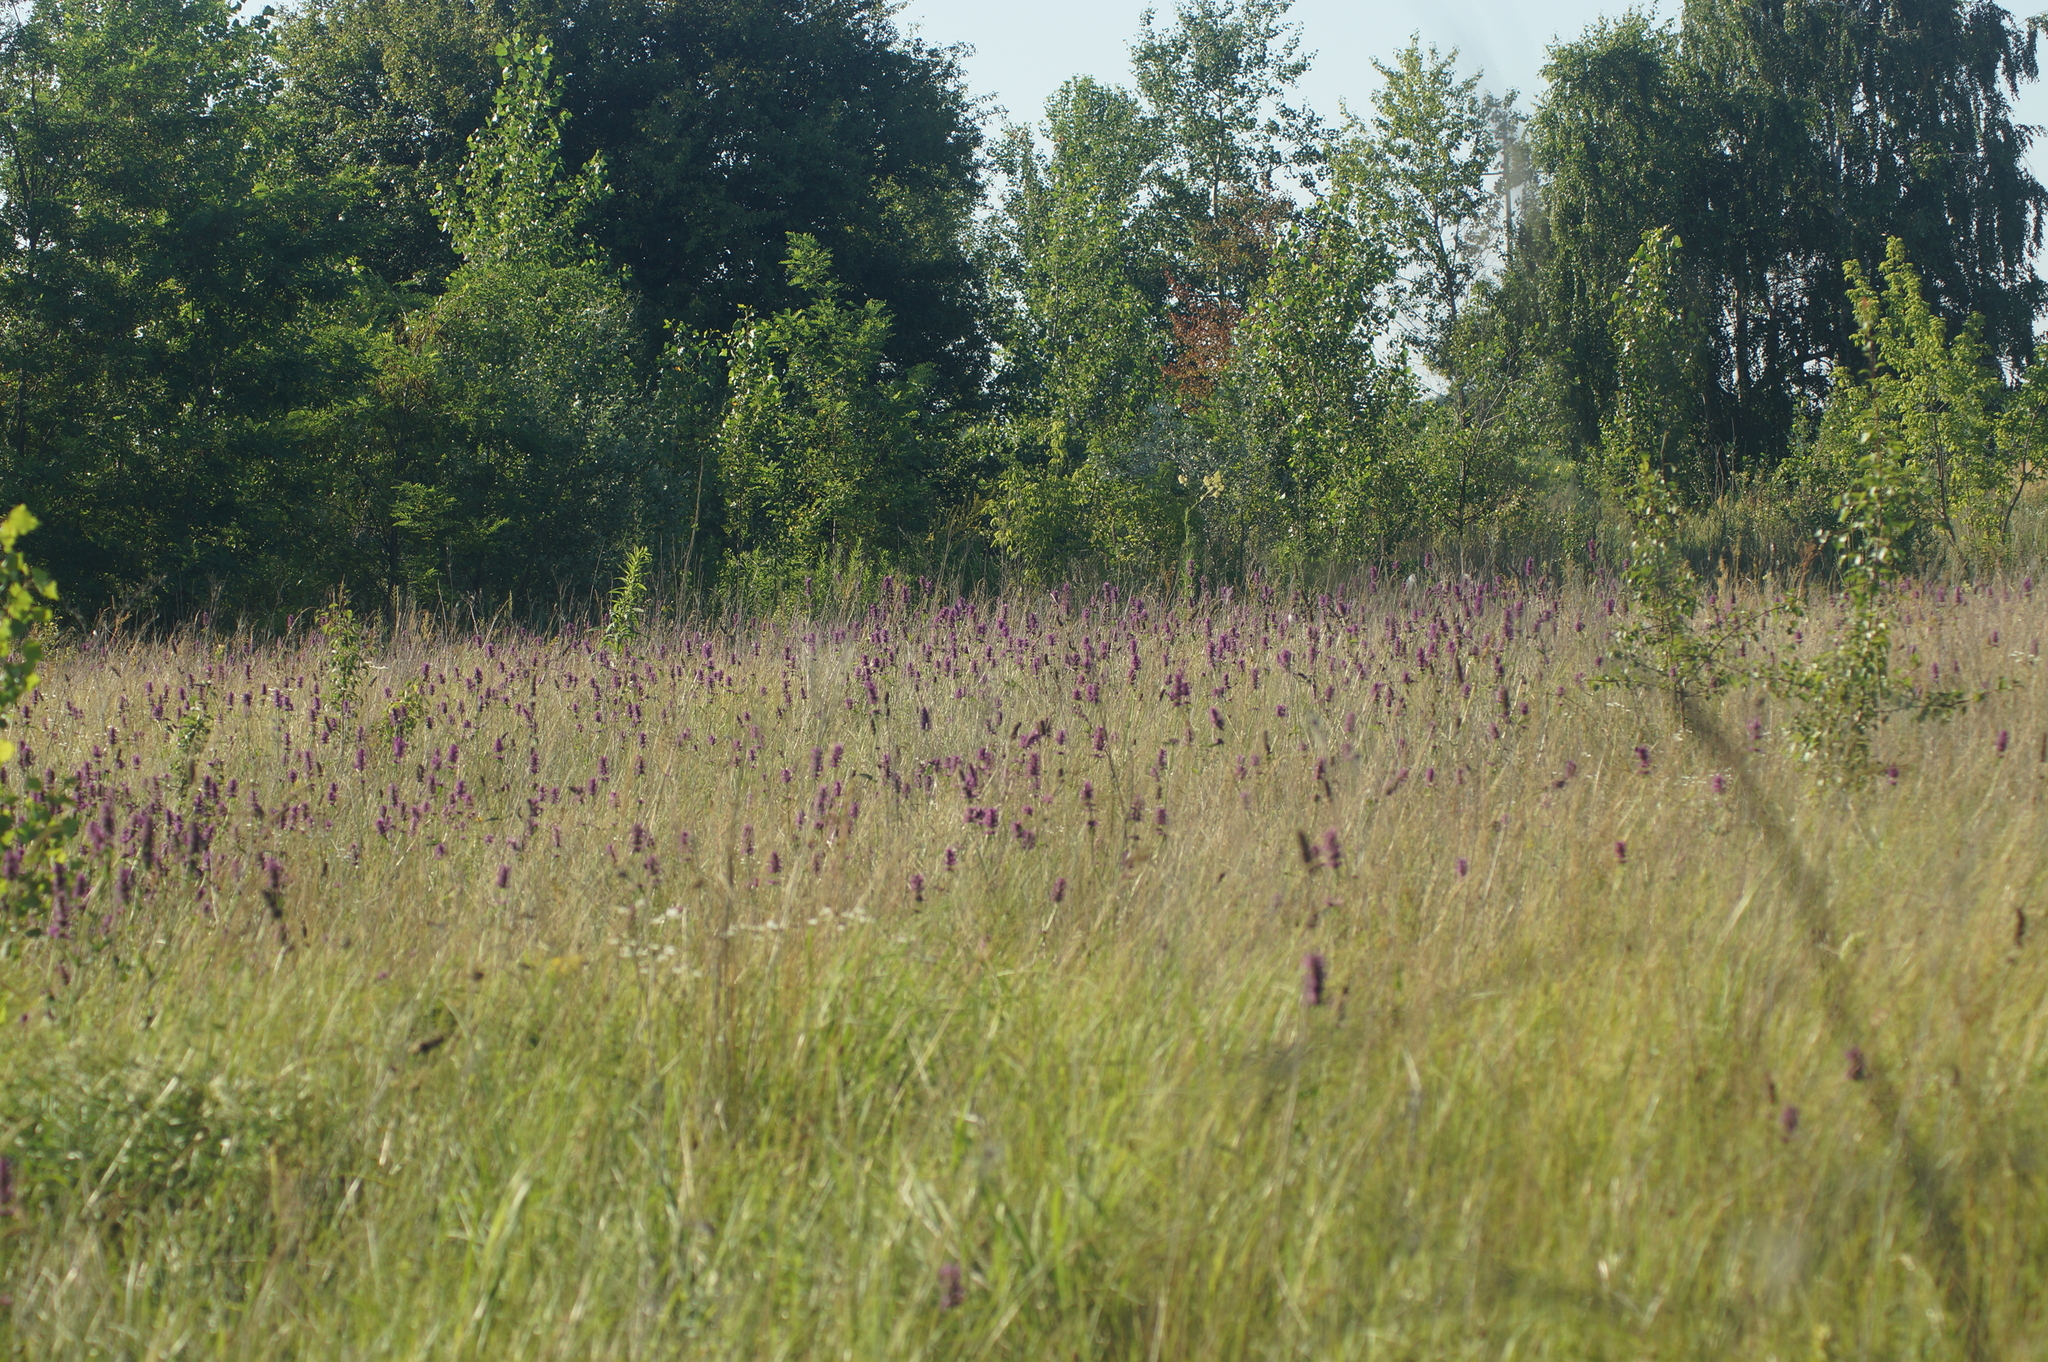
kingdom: Plantae
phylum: Tracheophyta
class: Magnoliopsida
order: Lamiales
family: Lamiaceae
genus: Betonica
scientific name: Betonica officinalis
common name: Bishop's-wort
